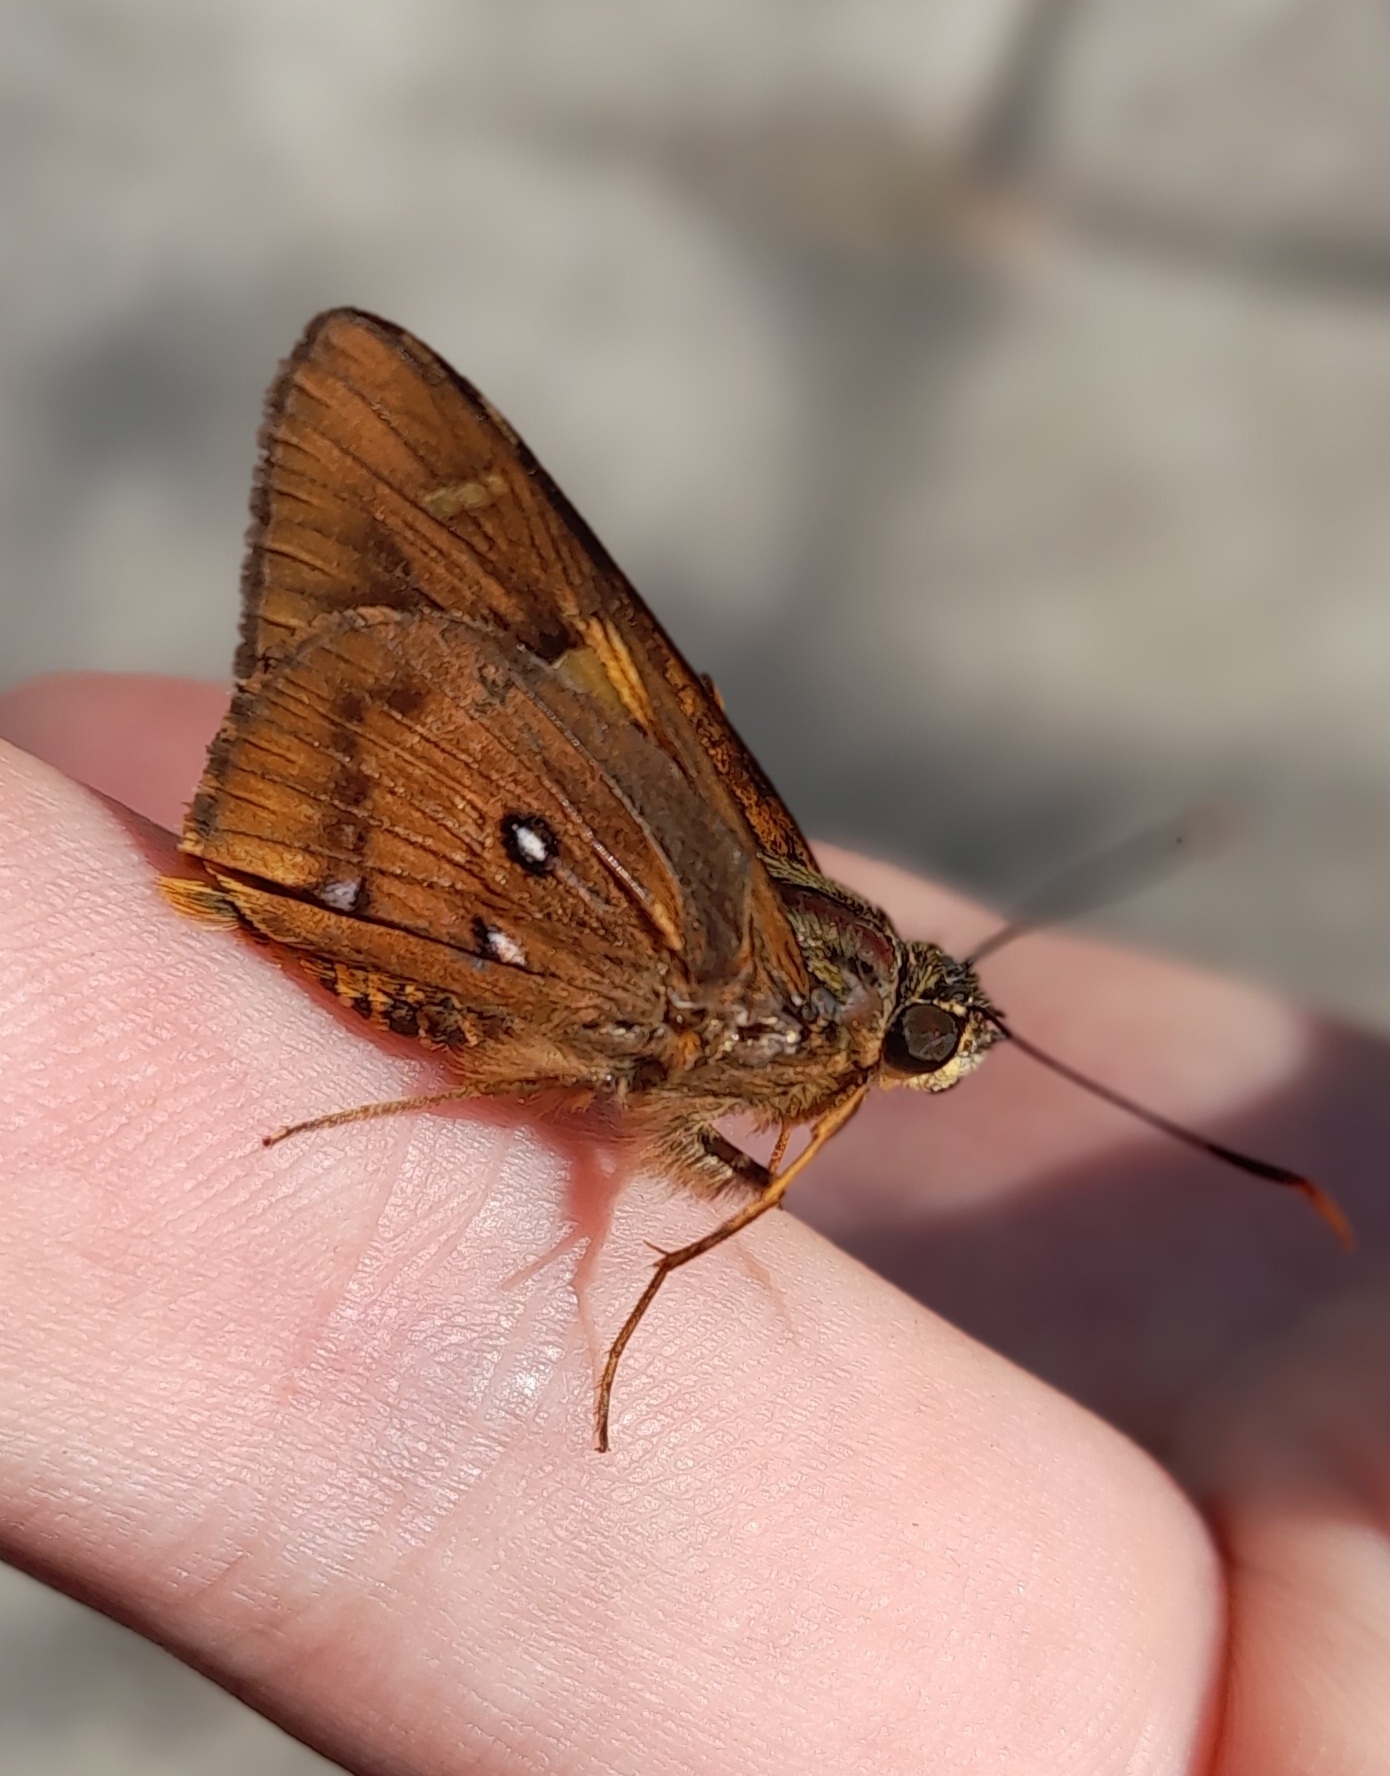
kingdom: Animalia
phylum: Arthropoda
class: Insecta
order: Lepidoptera
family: Hesperiidae
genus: Trapezites
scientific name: Trapezites symmomus
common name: Splendid ochre
